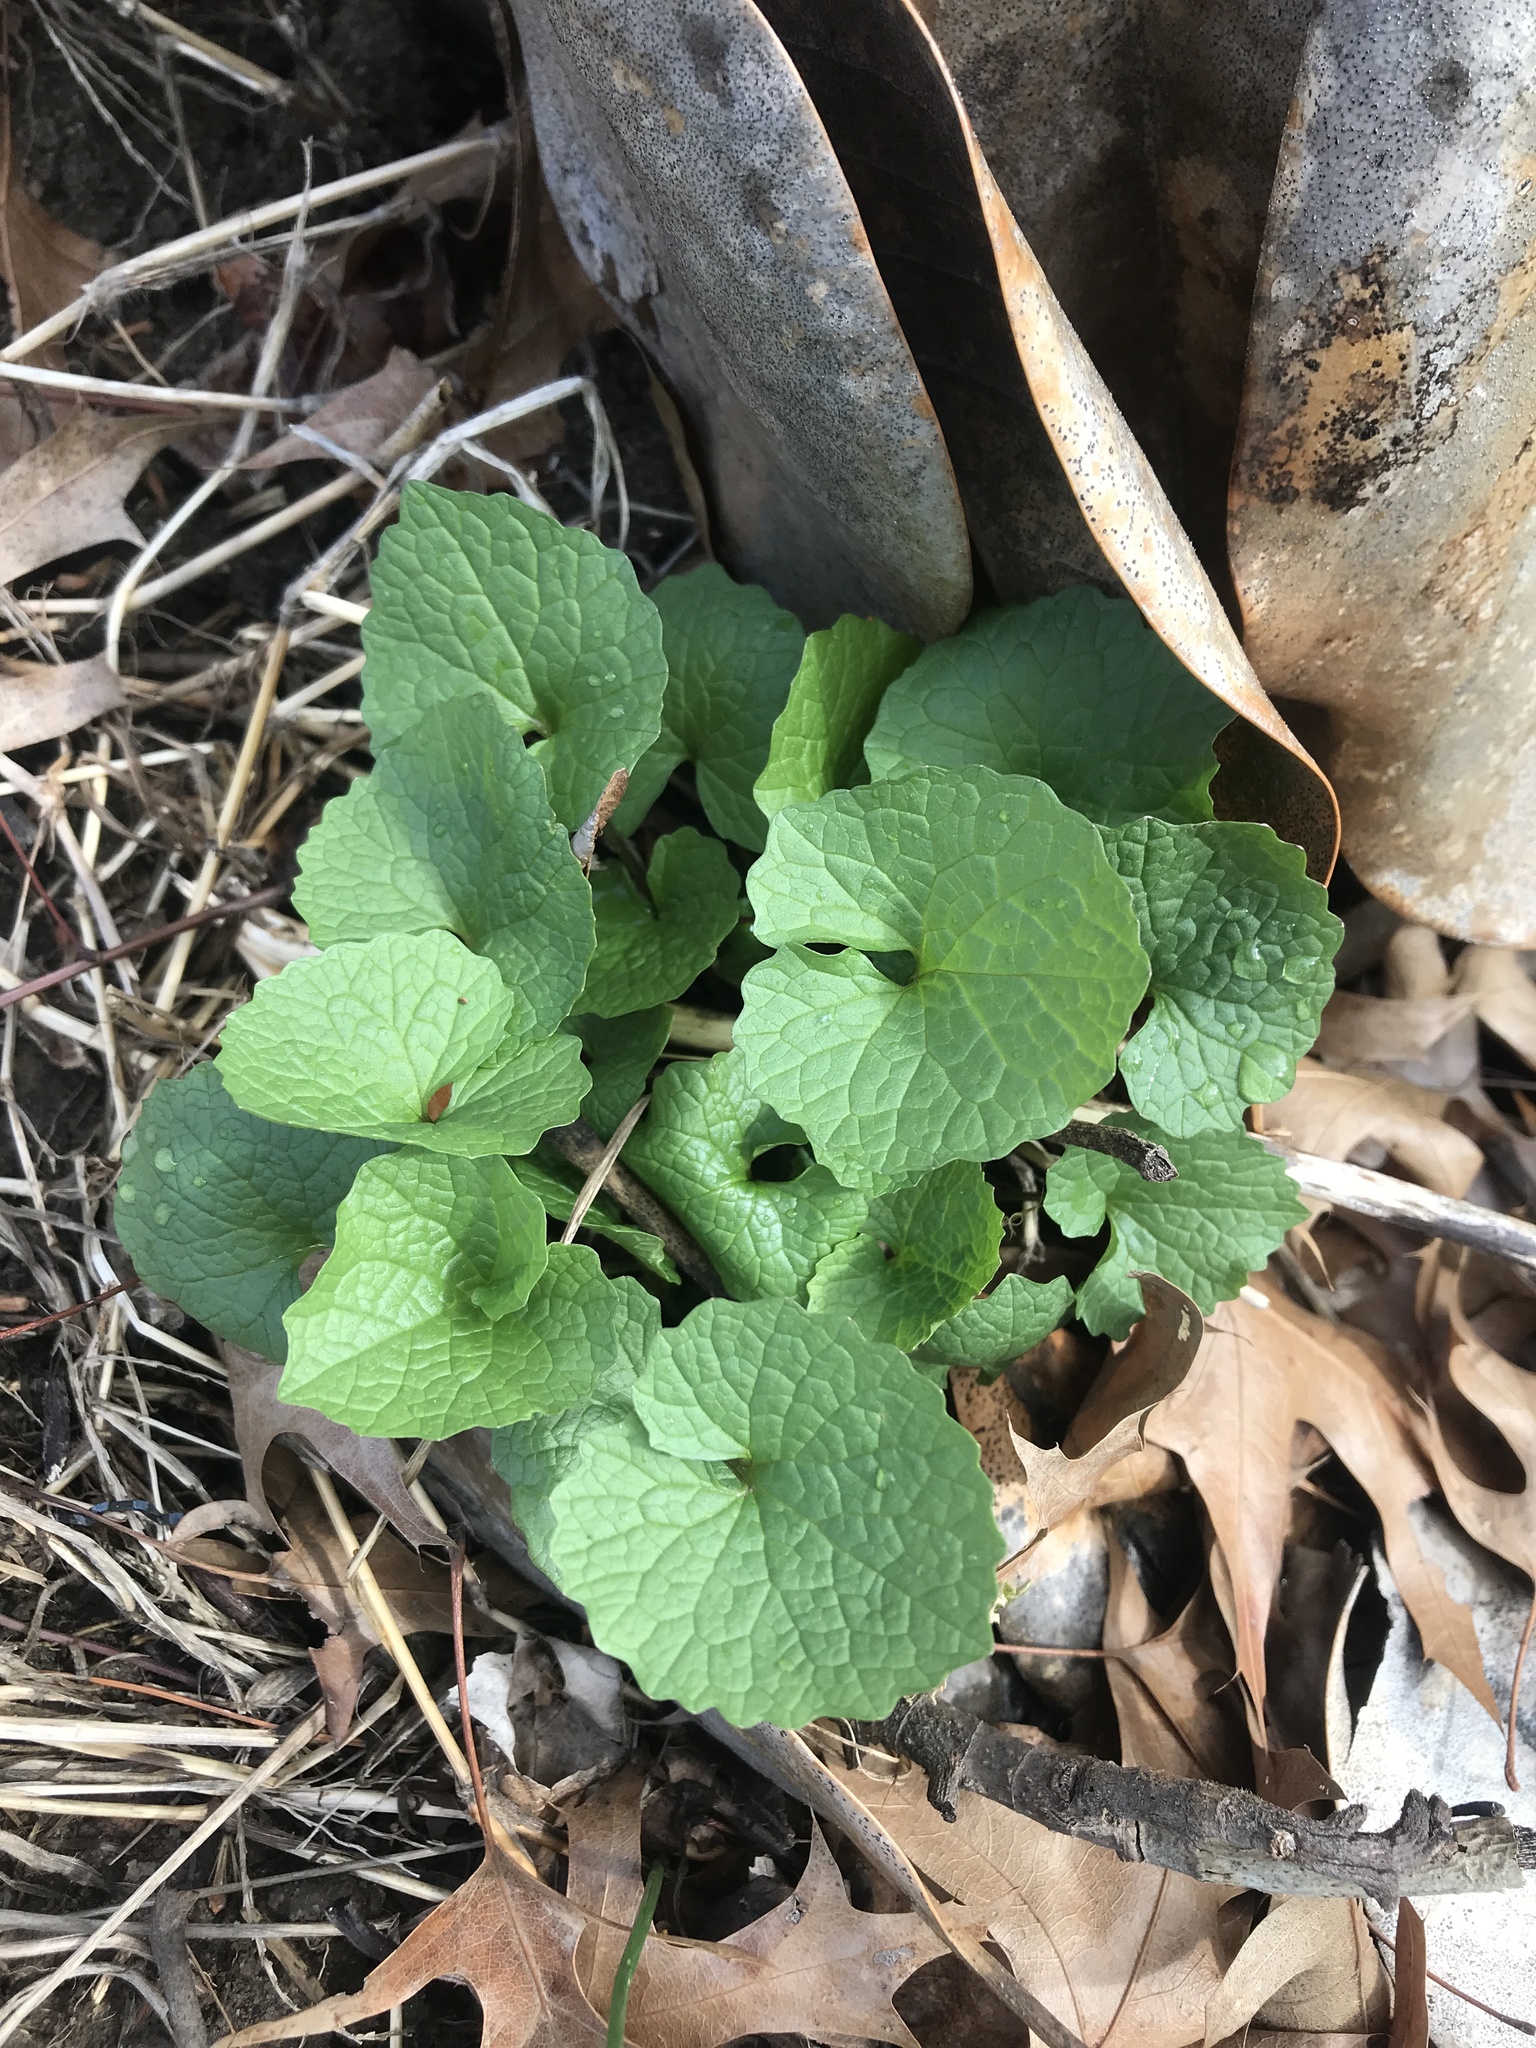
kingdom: Plantae
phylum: Tracheophyta
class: Magnoliopsida
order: Brassicales
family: Brassicaceae
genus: Alliaria
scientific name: Alliaria petiolata
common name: Garlic mustard
